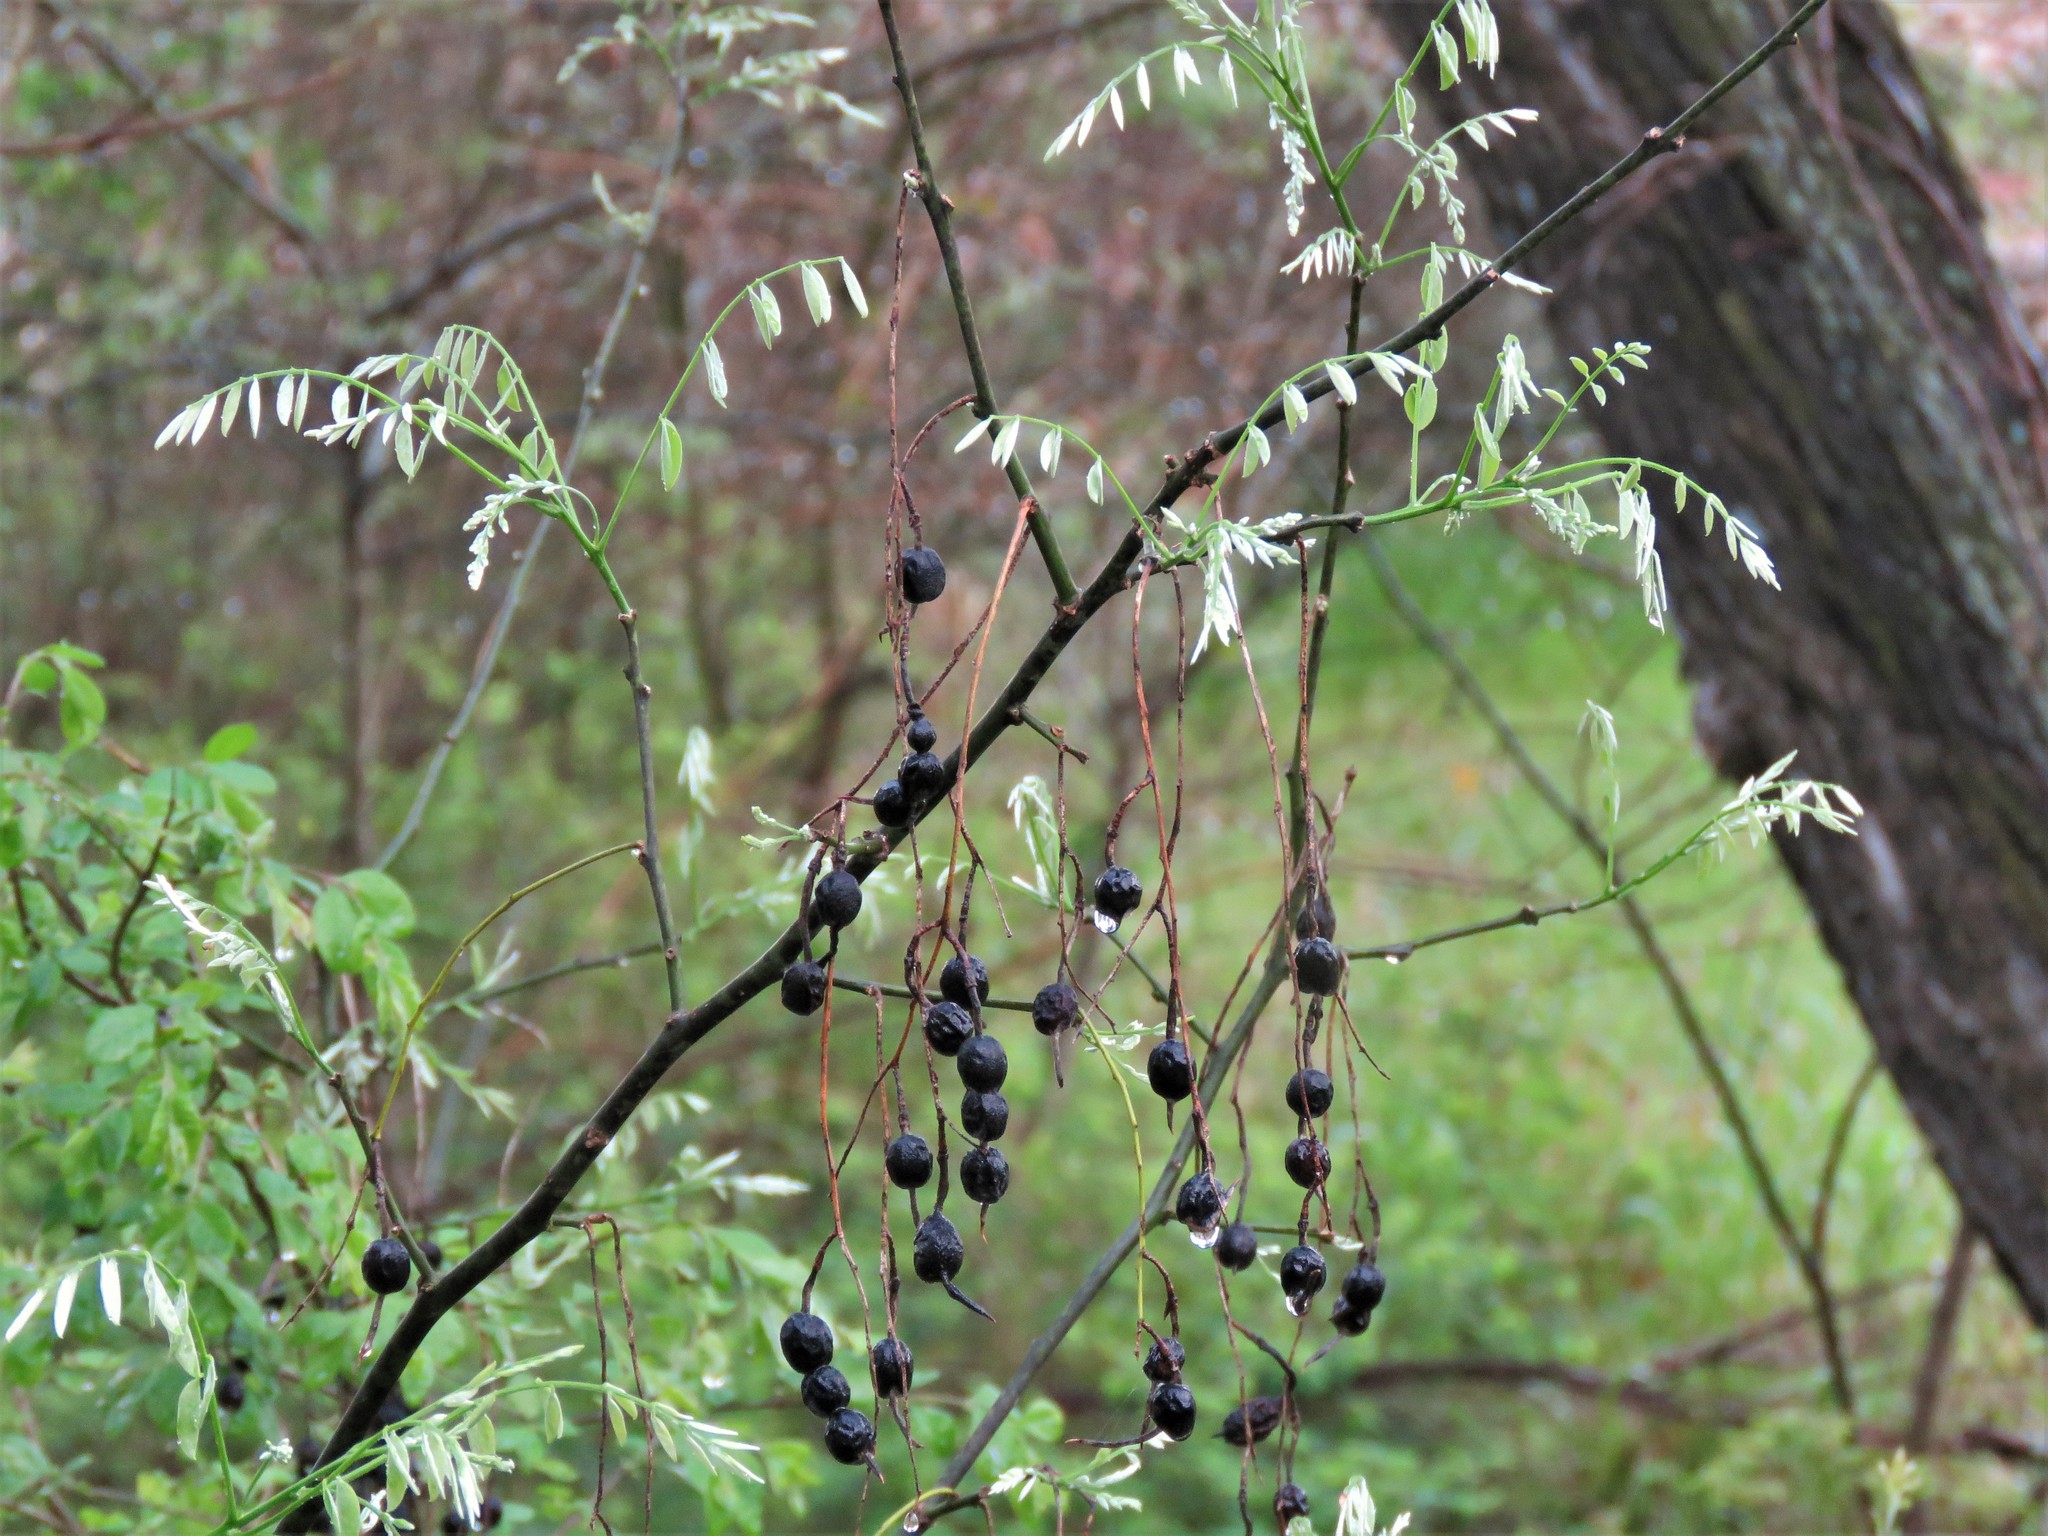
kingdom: Plantae
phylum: Tracheophyta
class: Magnoliopsida
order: Fabales
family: Fabaceae
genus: Styphnolobium
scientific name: Styphnolobium affine
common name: Texas sophora
